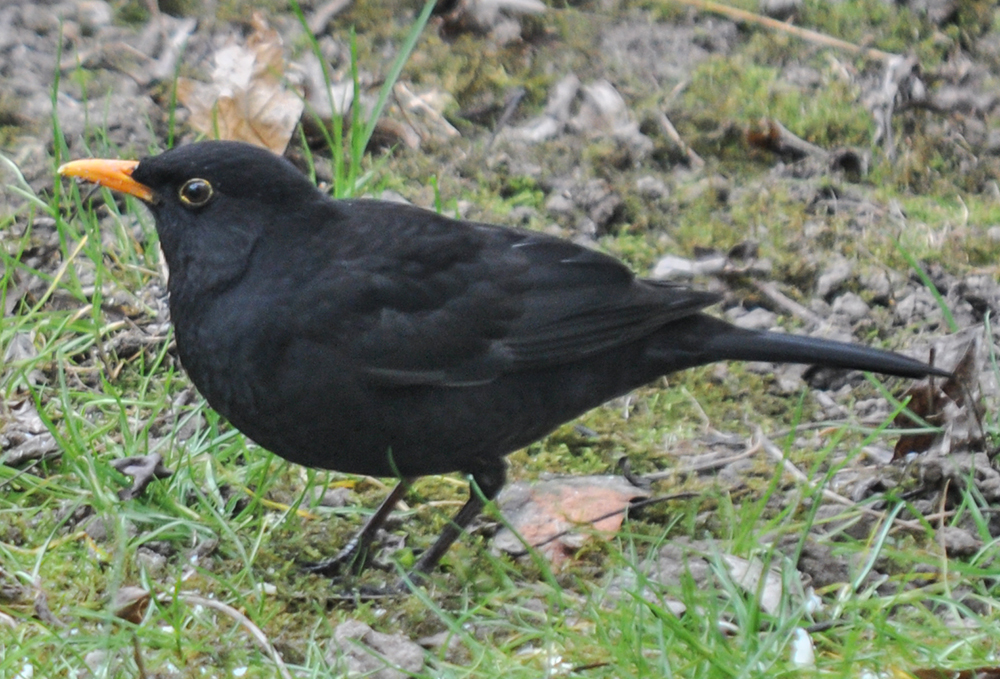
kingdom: Animalia
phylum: Chordata
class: Aves
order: Passeriformes
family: Turdidae
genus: Turdus
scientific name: Turdus merula
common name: Common blackbird
